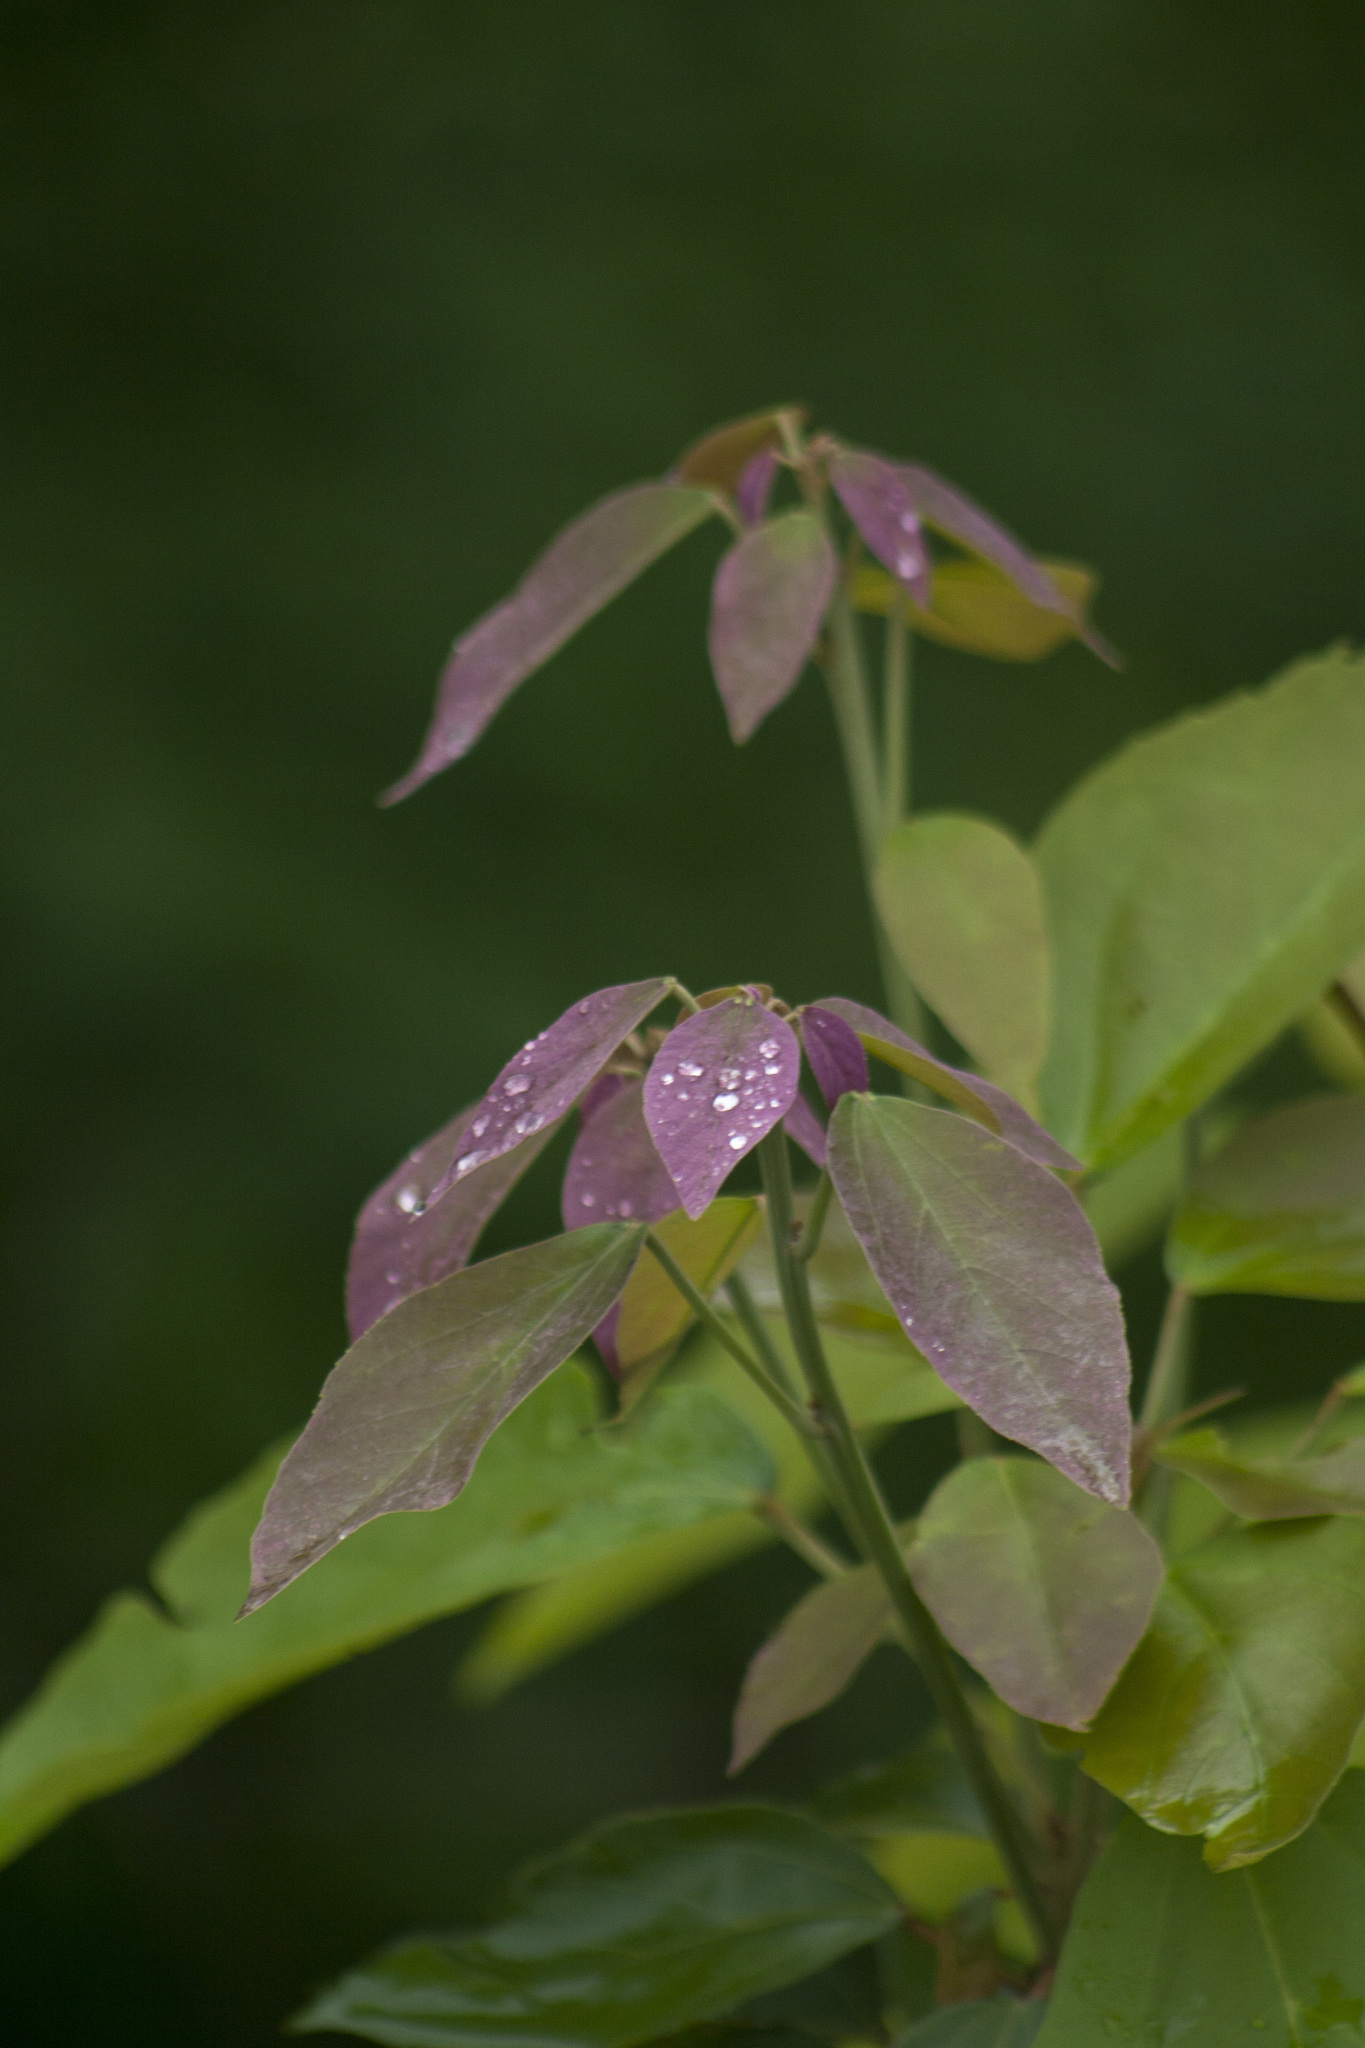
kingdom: Plantae
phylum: Tracheophyta
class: Magnoliopsida
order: Malpighiales
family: Euphorbiaceae
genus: Mallotus
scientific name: Mallotus philippensis
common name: Kamala tree
